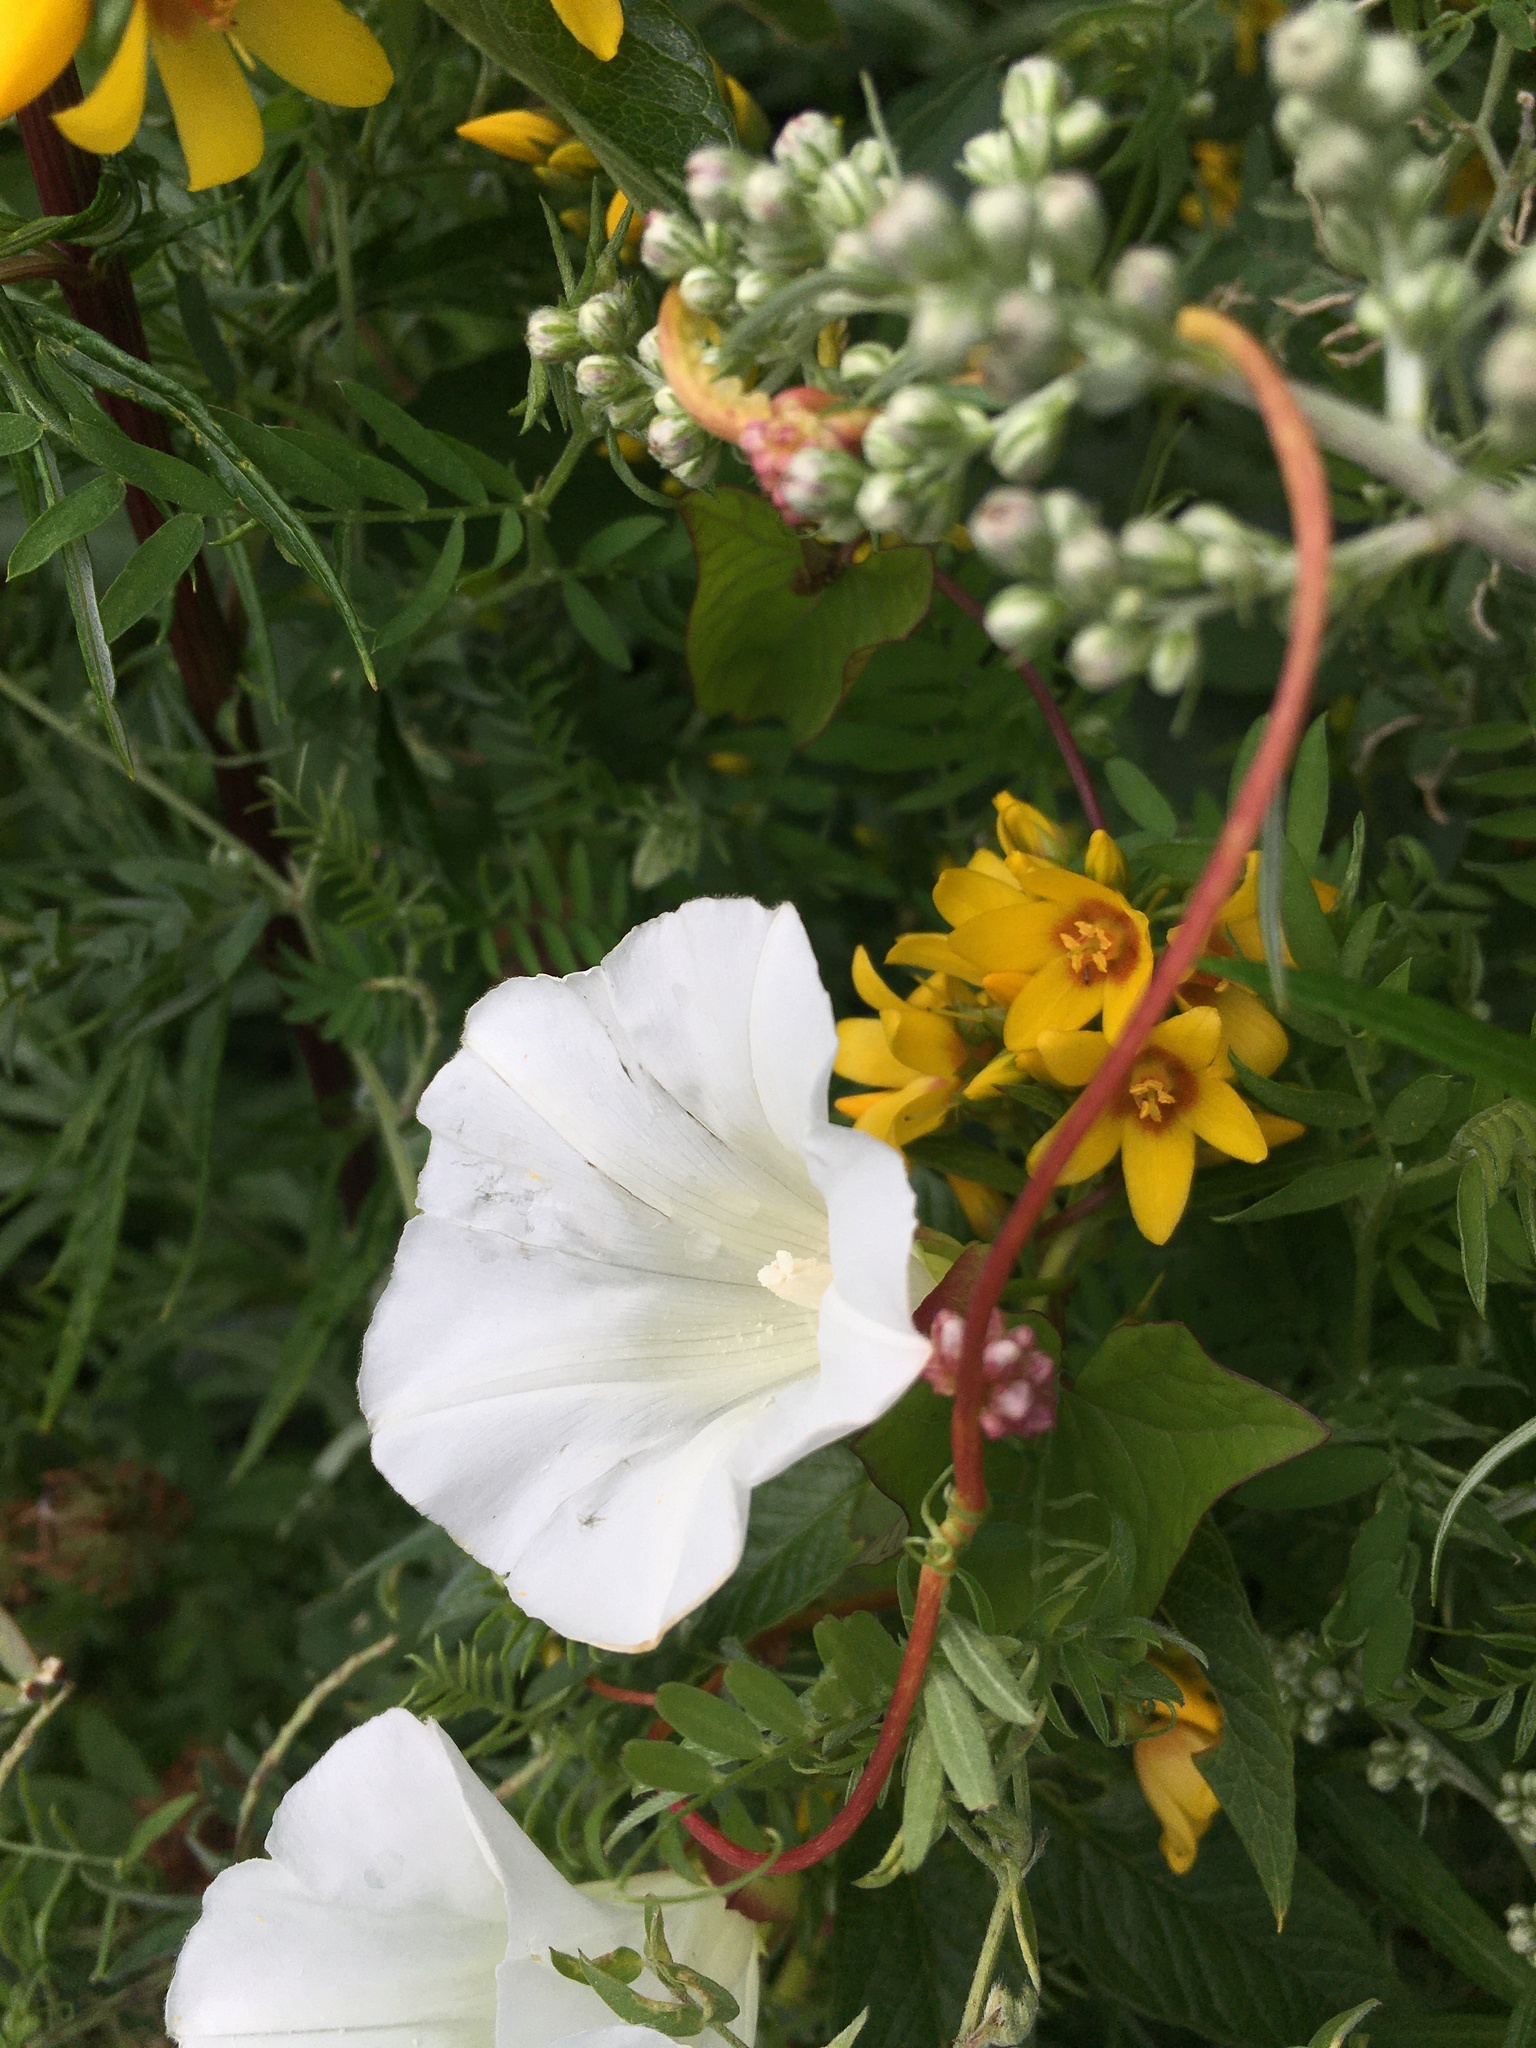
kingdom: Plantae
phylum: Tracheophyta
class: Magnoliopsida
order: Solanales
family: Convolvulaceae
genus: Calystegia
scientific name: Calystegia sepium
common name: Hedge bindweed
